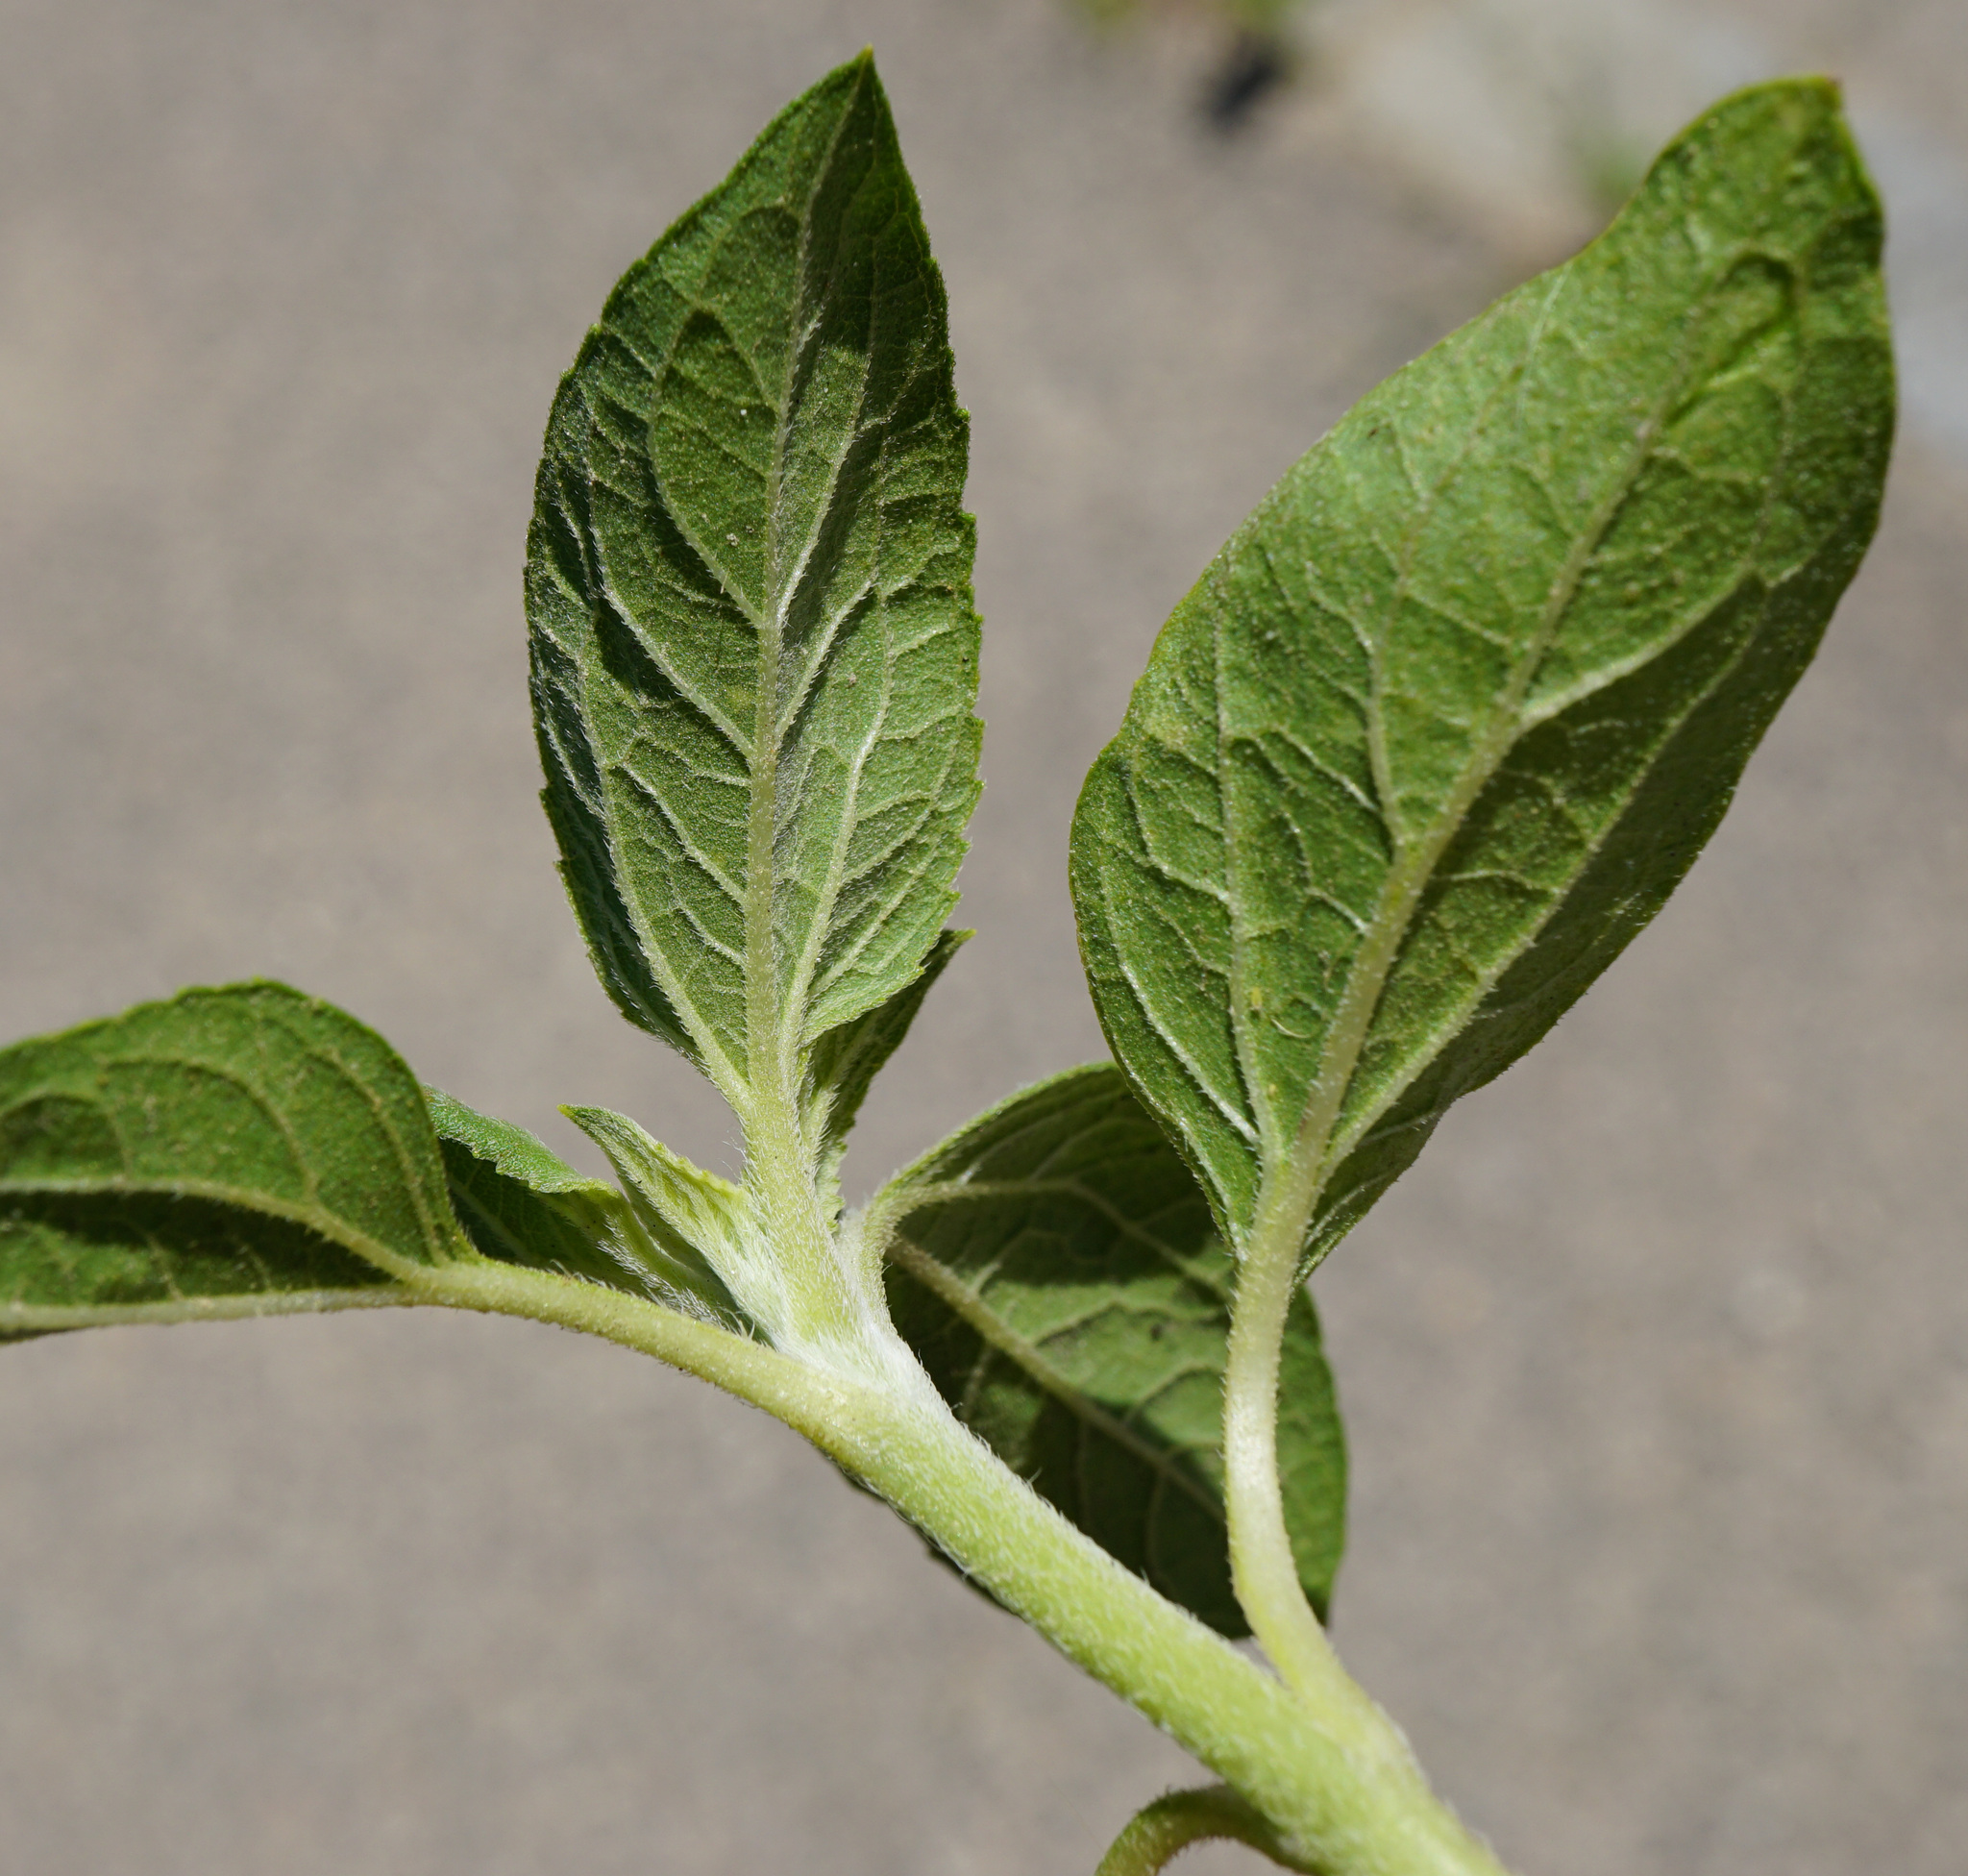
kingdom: Plantae
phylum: Tracheophyta
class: Magnoliopsida
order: Asterales
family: Asteraceae
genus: Helianthus
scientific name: Helianthus tuberosus
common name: Jerusalem artichoke
